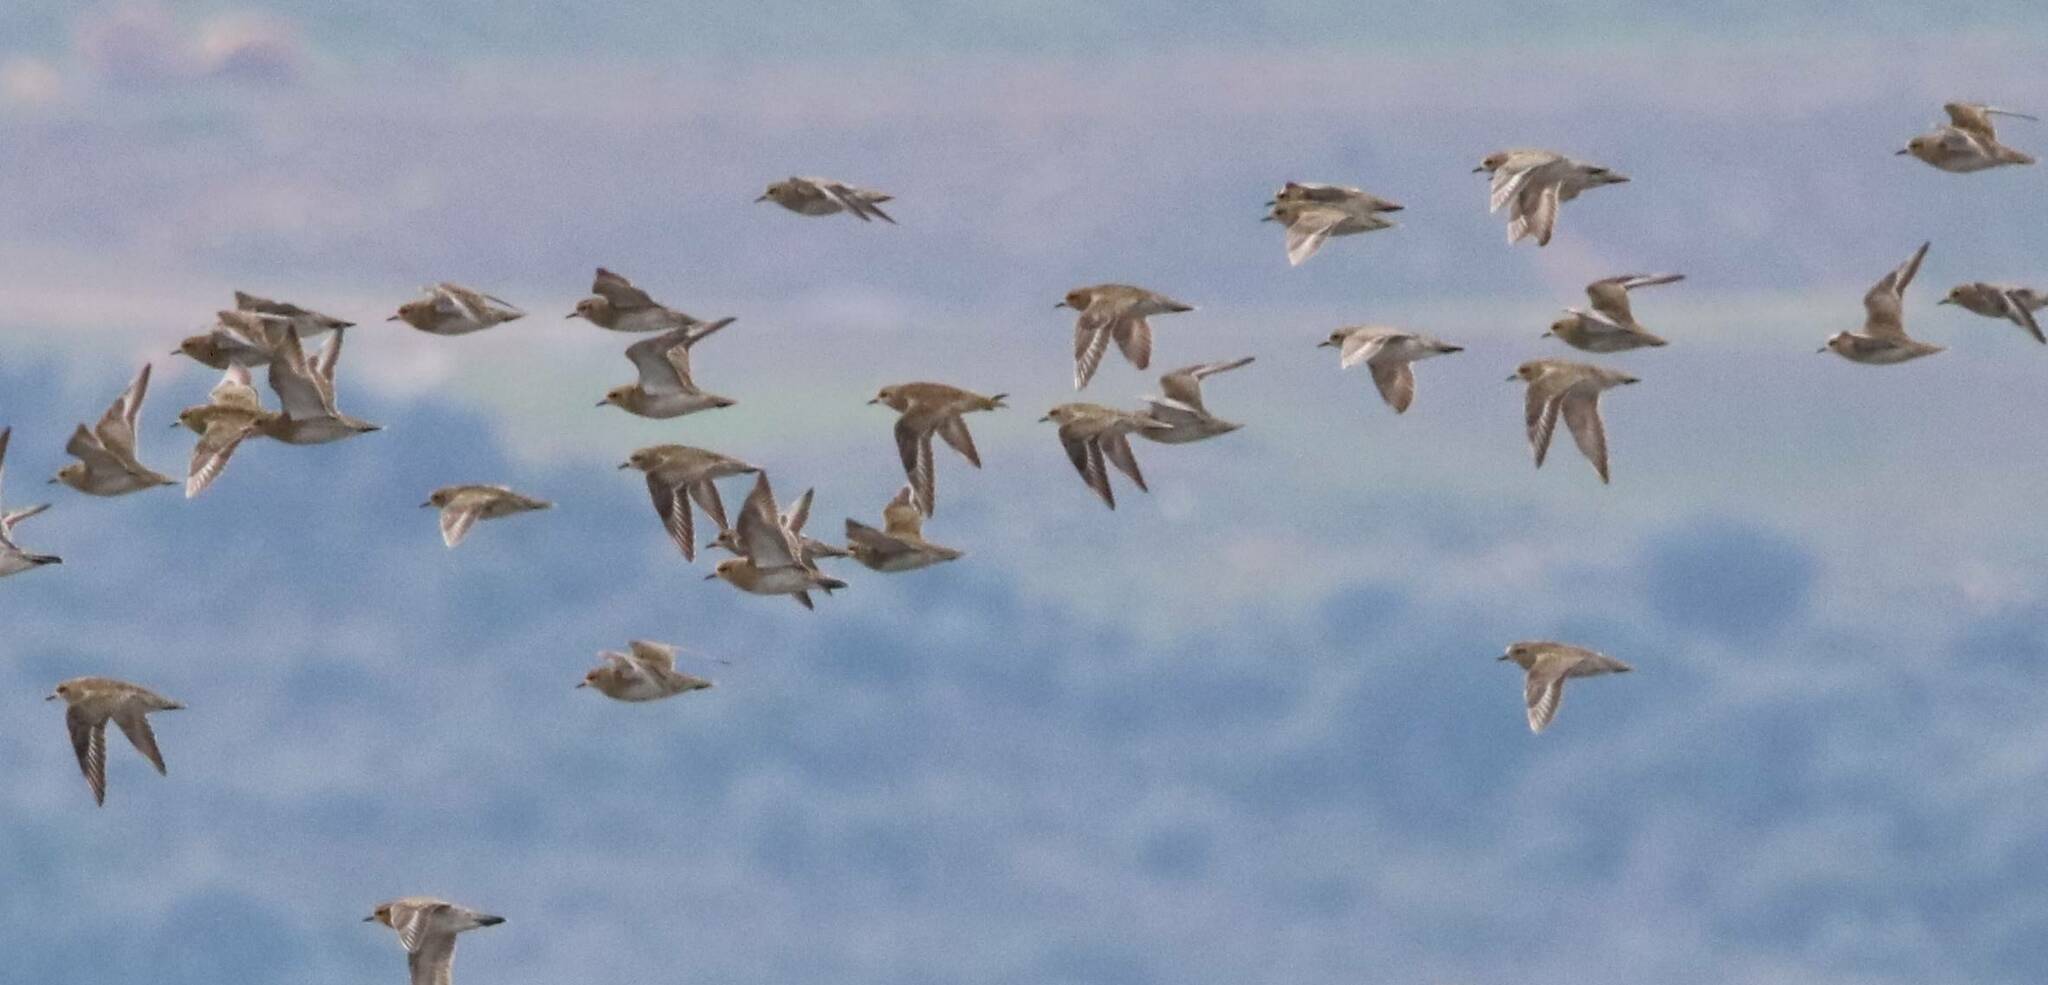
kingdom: Animalia
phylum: Chordata
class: Aves
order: Charadriiformes
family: Charadriidae
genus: Pluvialis
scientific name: Pluvialis apricaria
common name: European golden plover
